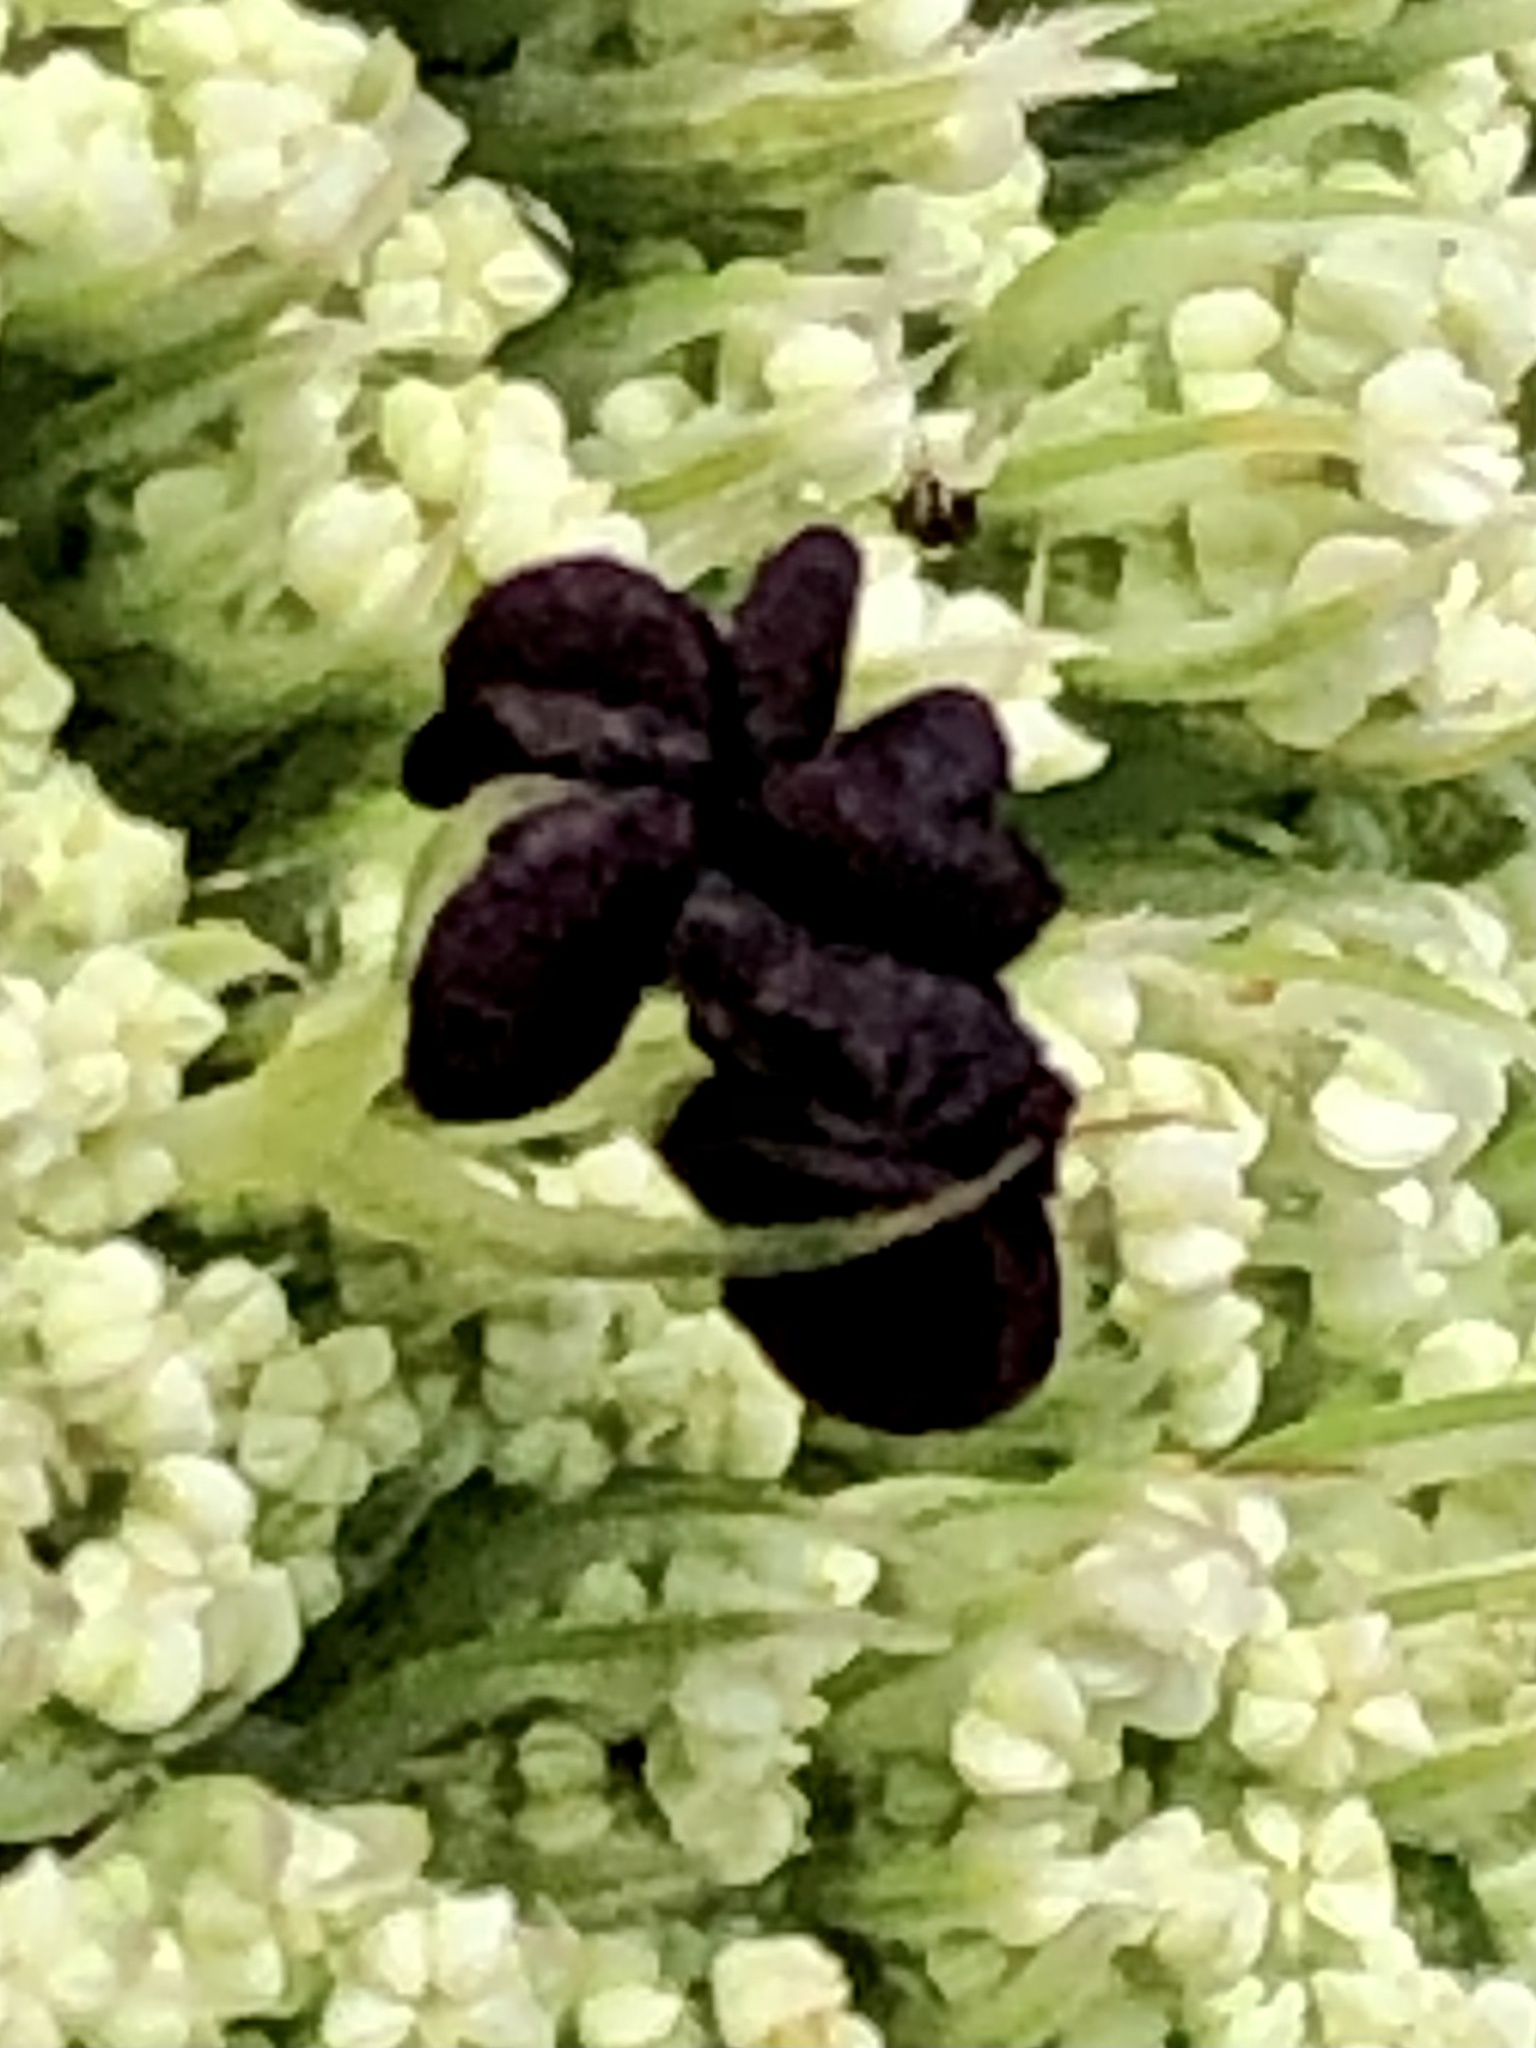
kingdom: Plantae
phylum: Tracheophyta
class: Magnoliopsida
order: Apiales
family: Apiaceae
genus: Daucus
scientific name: Daucus carota
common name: Wild carrot
